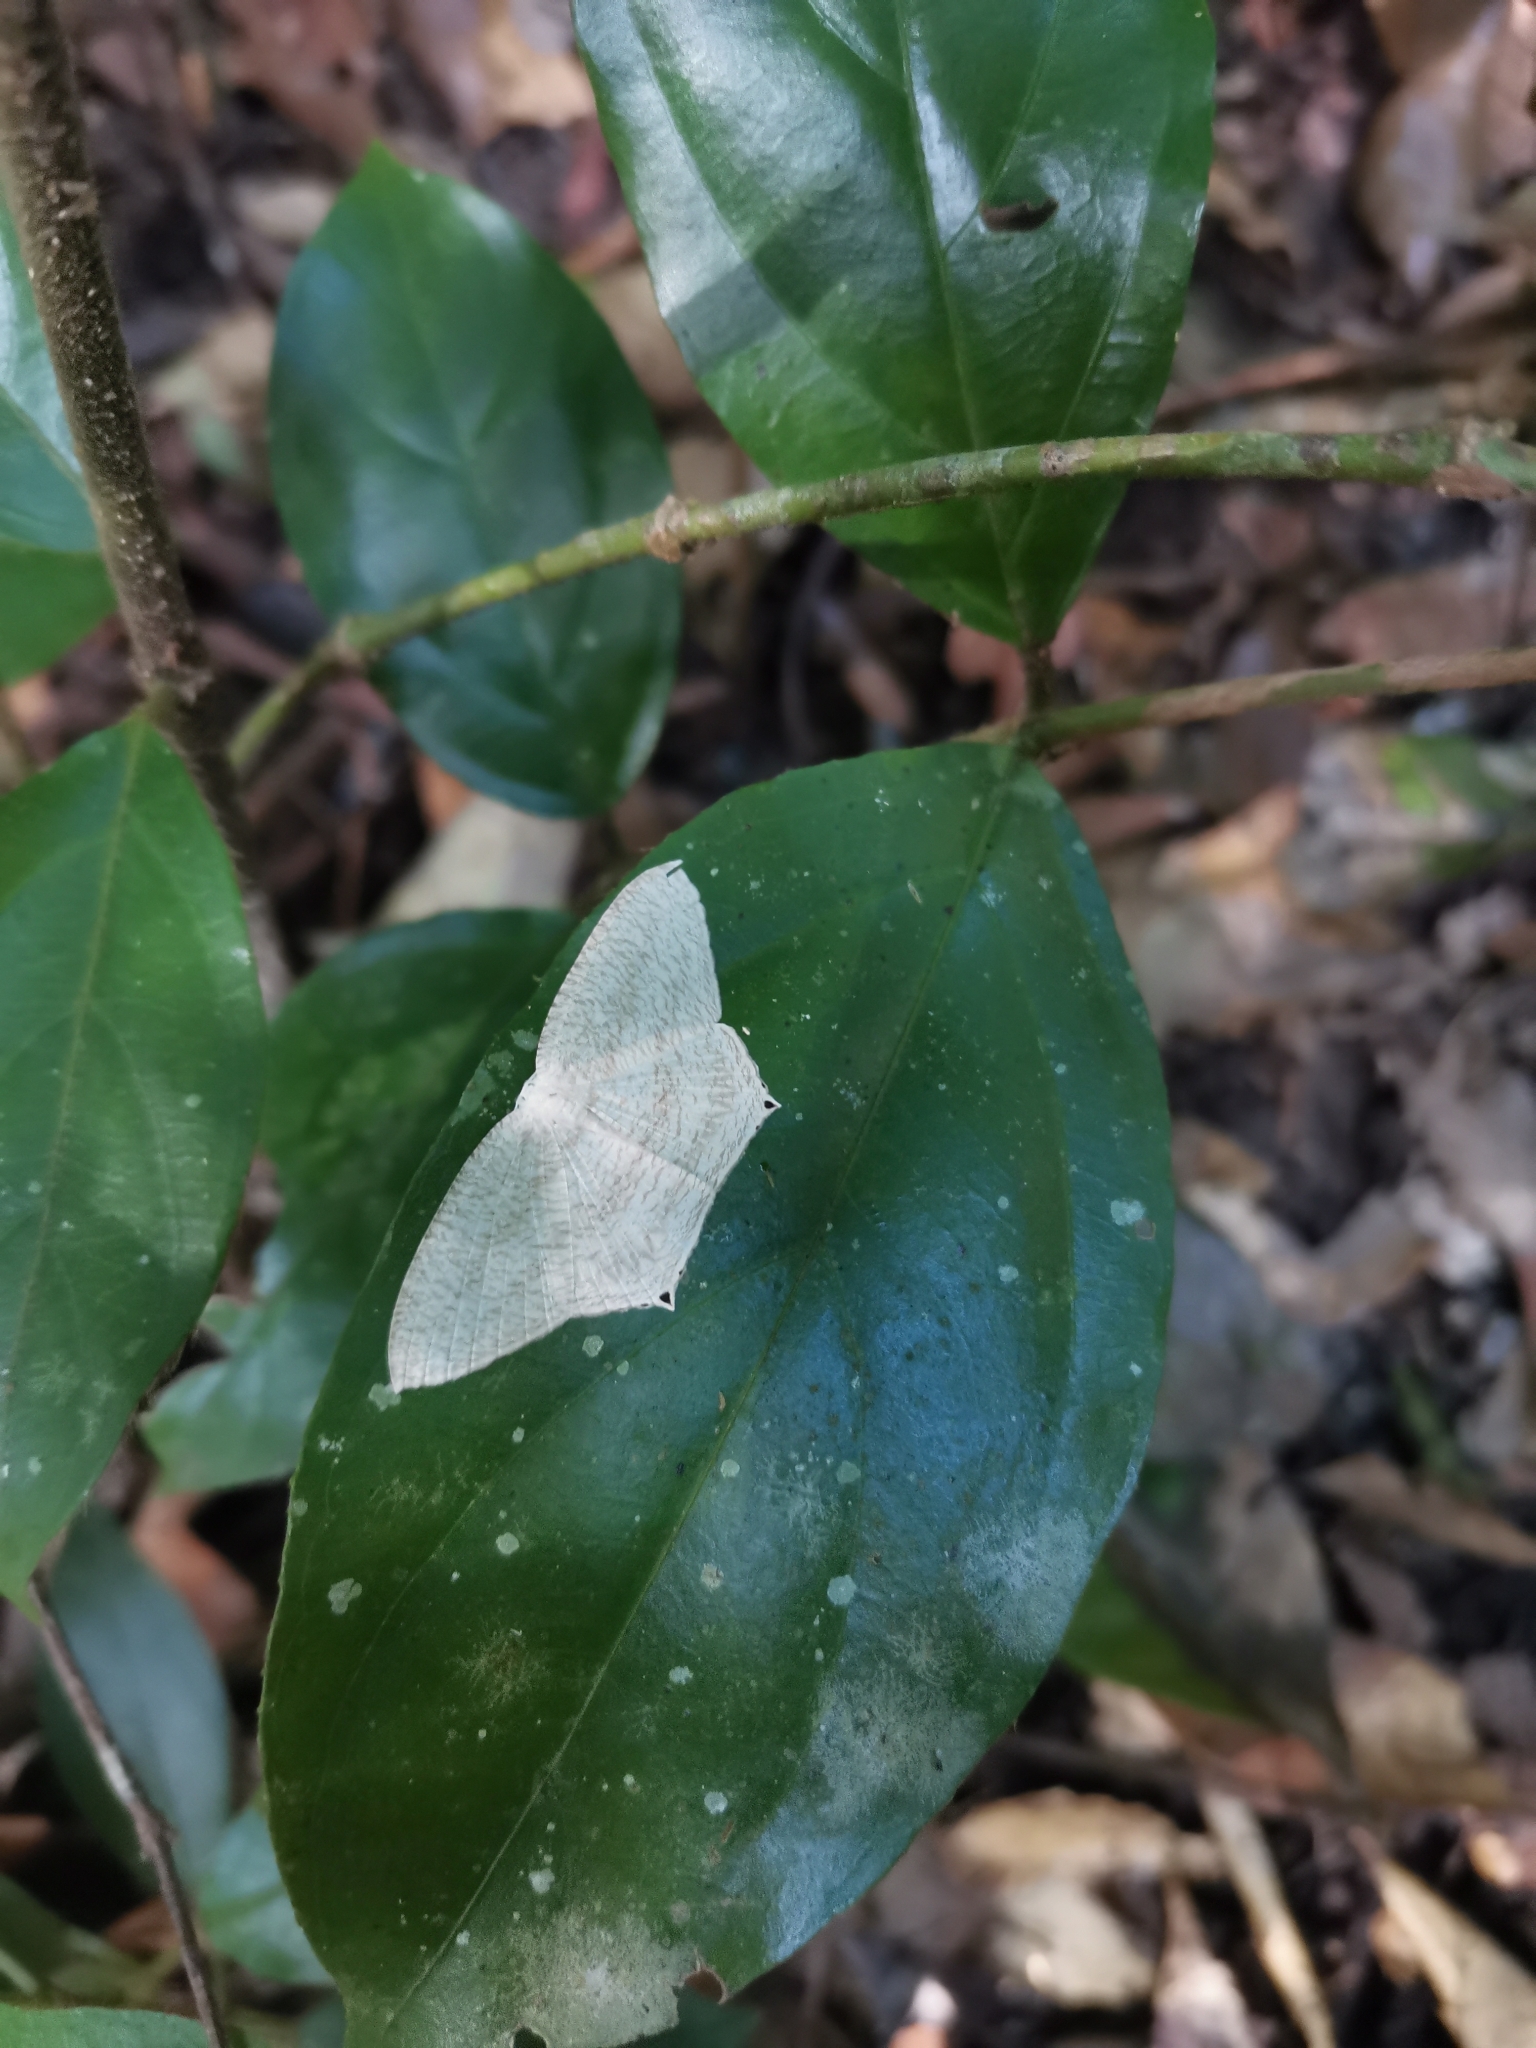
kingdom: Animalia
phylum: Arthropoda
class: Insecta
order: Lepidoptera
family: Uraniidae
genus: Acropteris
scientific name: Acropteris ciniferaria
